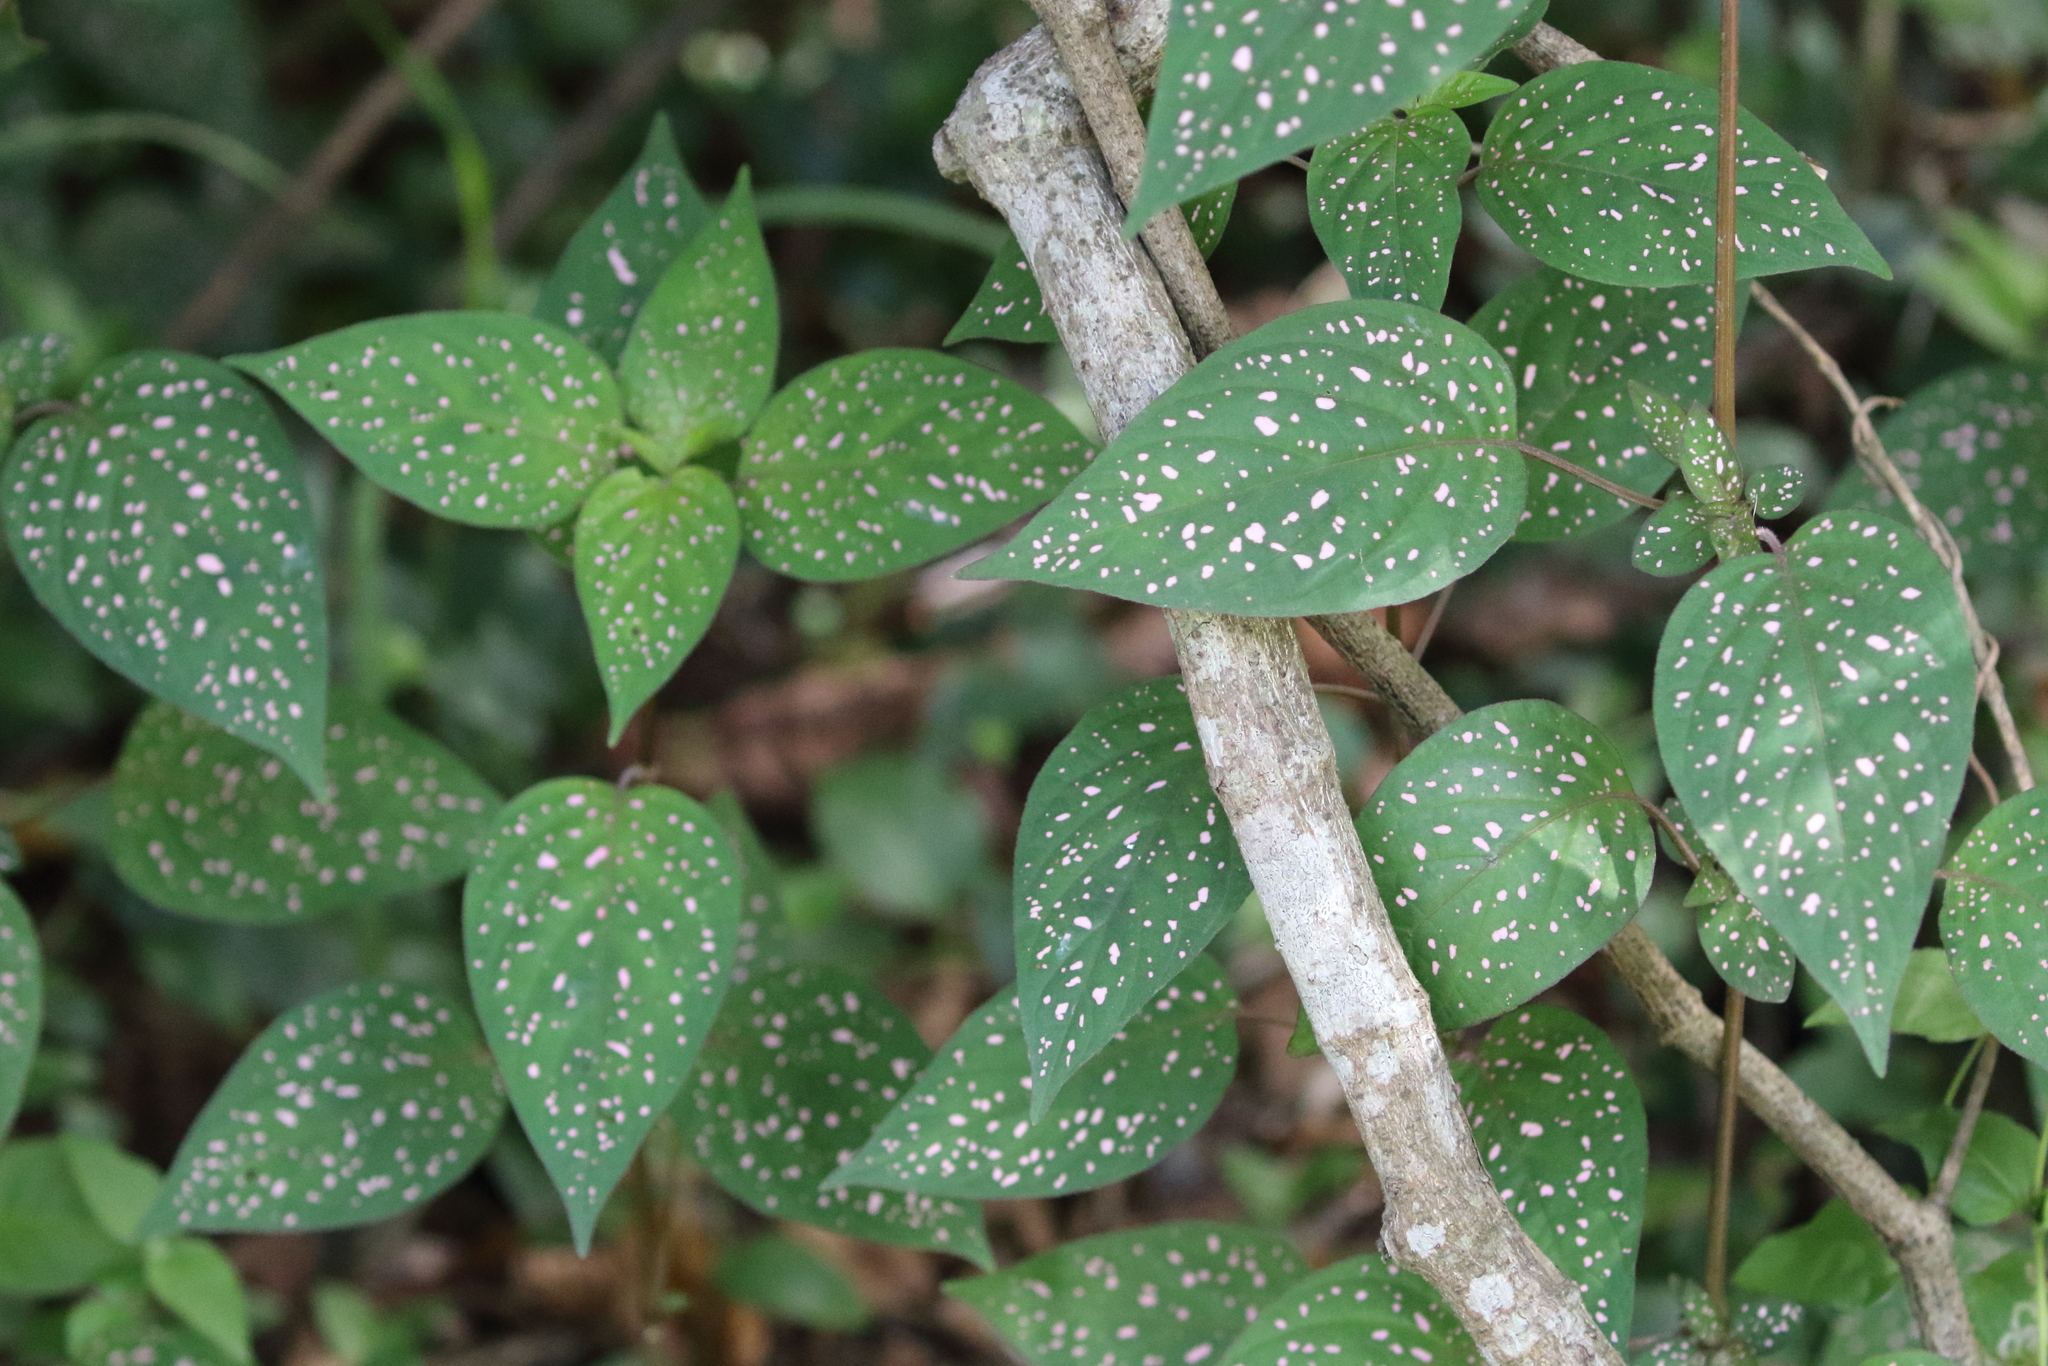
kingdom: Plantae
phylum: Tracheophyta
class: Magnoliopsida
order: Lamiales
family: Acanthaceae
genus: Hypoestes
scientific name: Hypoestes phyllostachya
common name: Polkadot-plant
